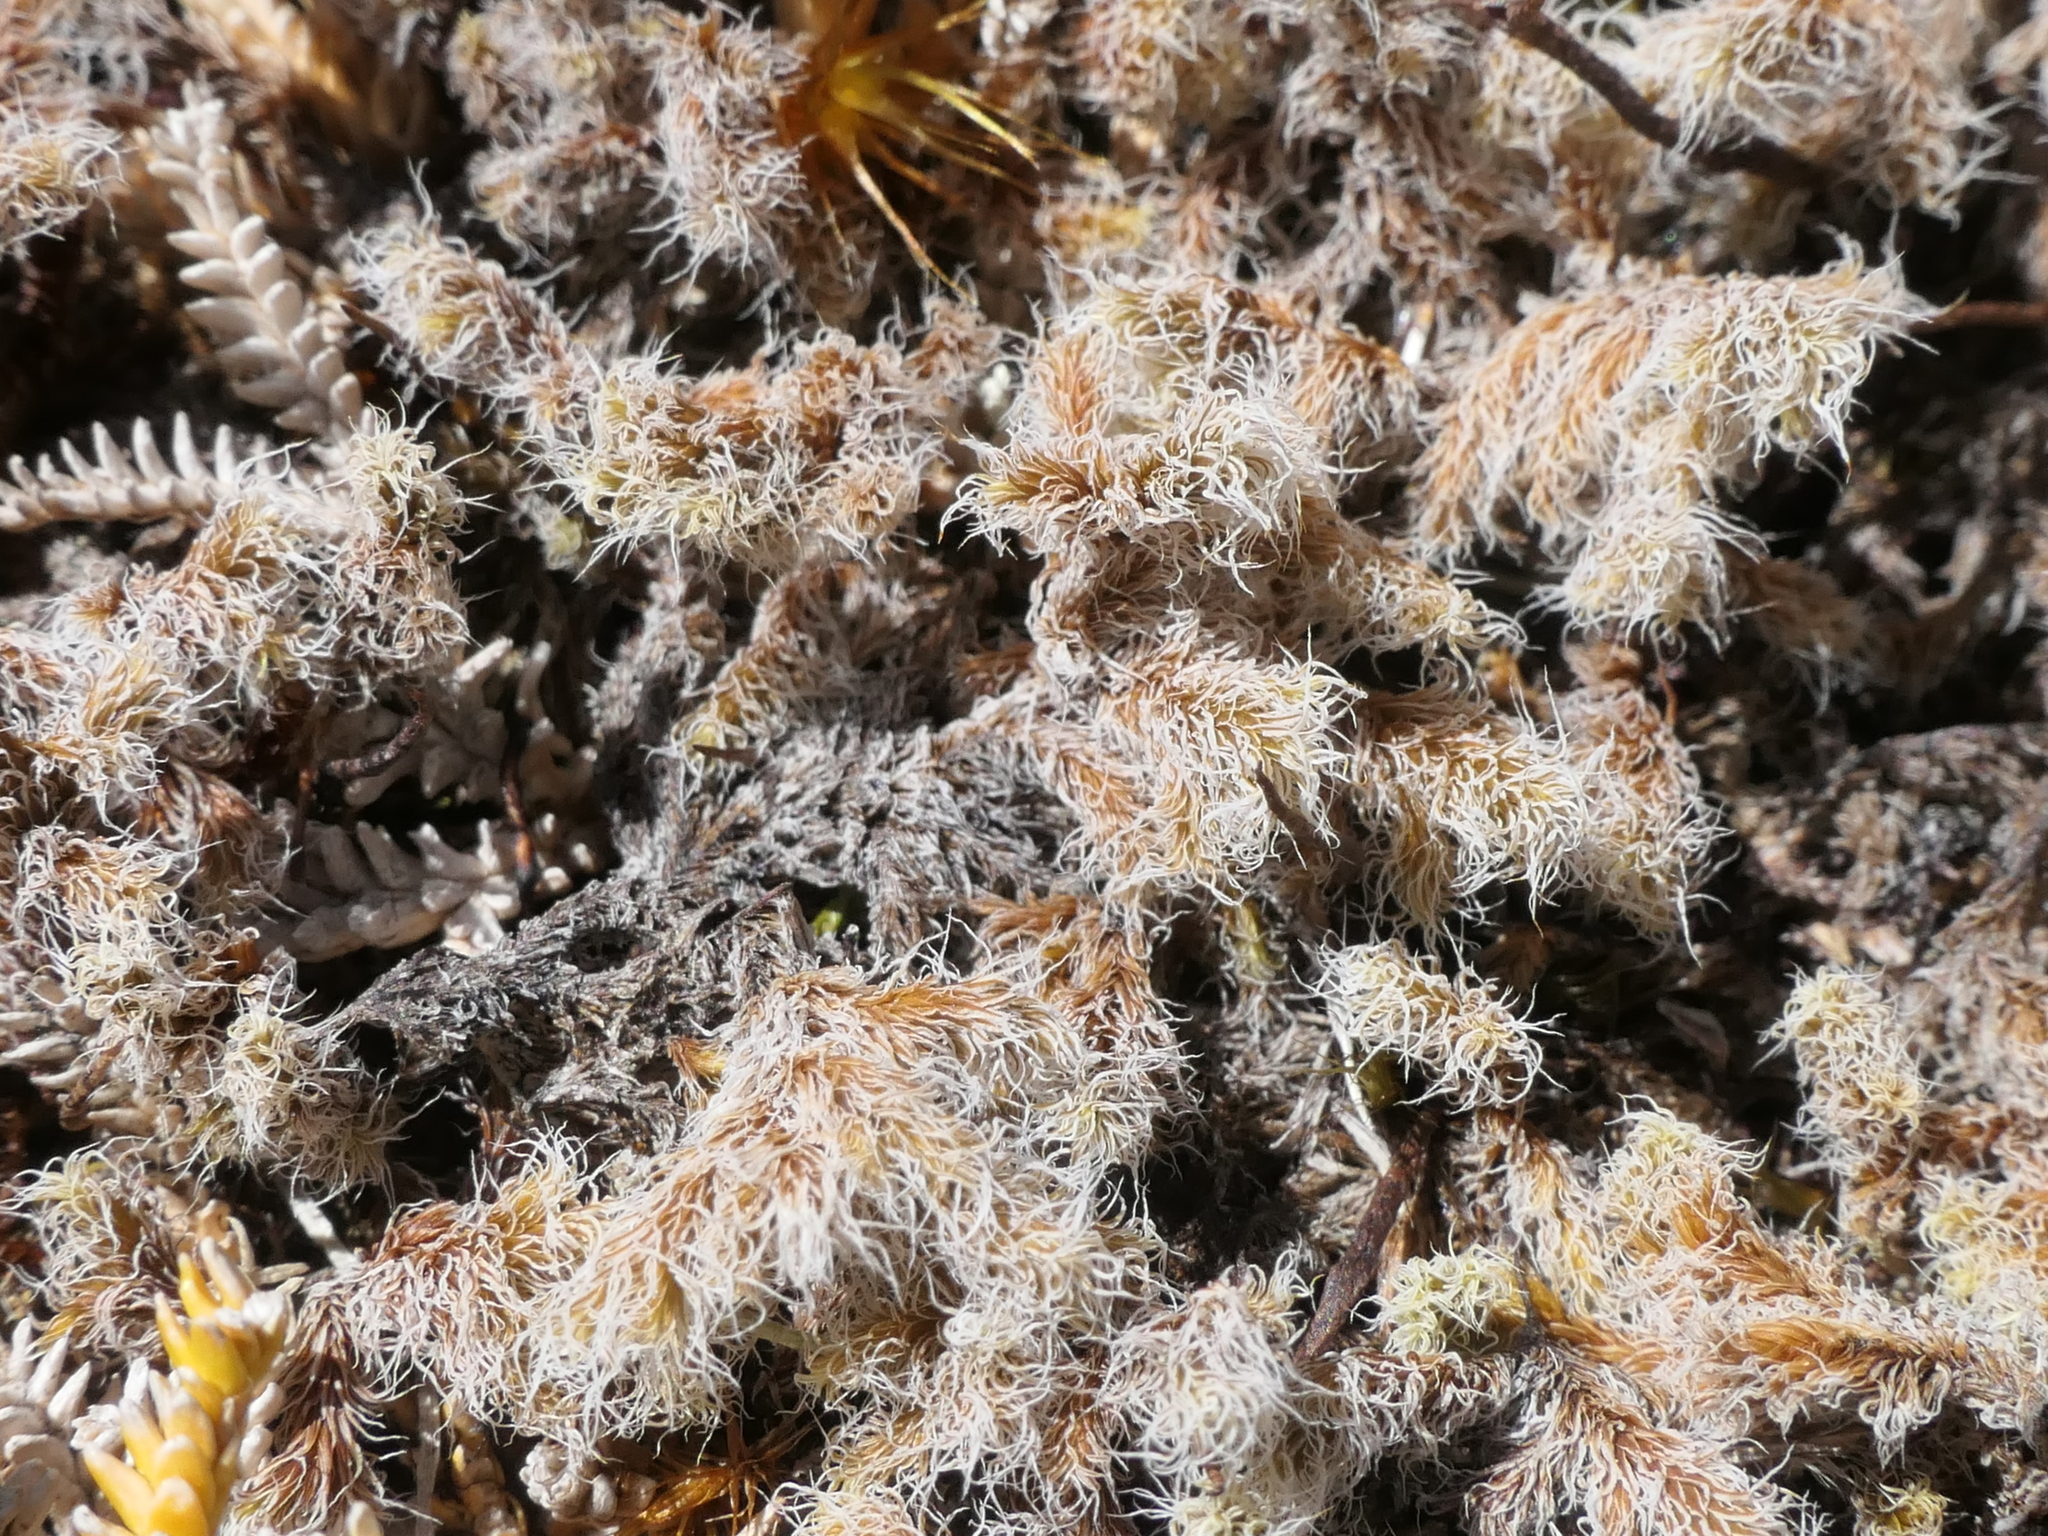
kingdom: Plantae
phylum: Bryophyta
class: Bryopsida
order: Grimmiales
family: Grimmiaceae
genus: Racomitrium
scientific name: Racomitrium lanuginosum
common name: Hoary rock moss
